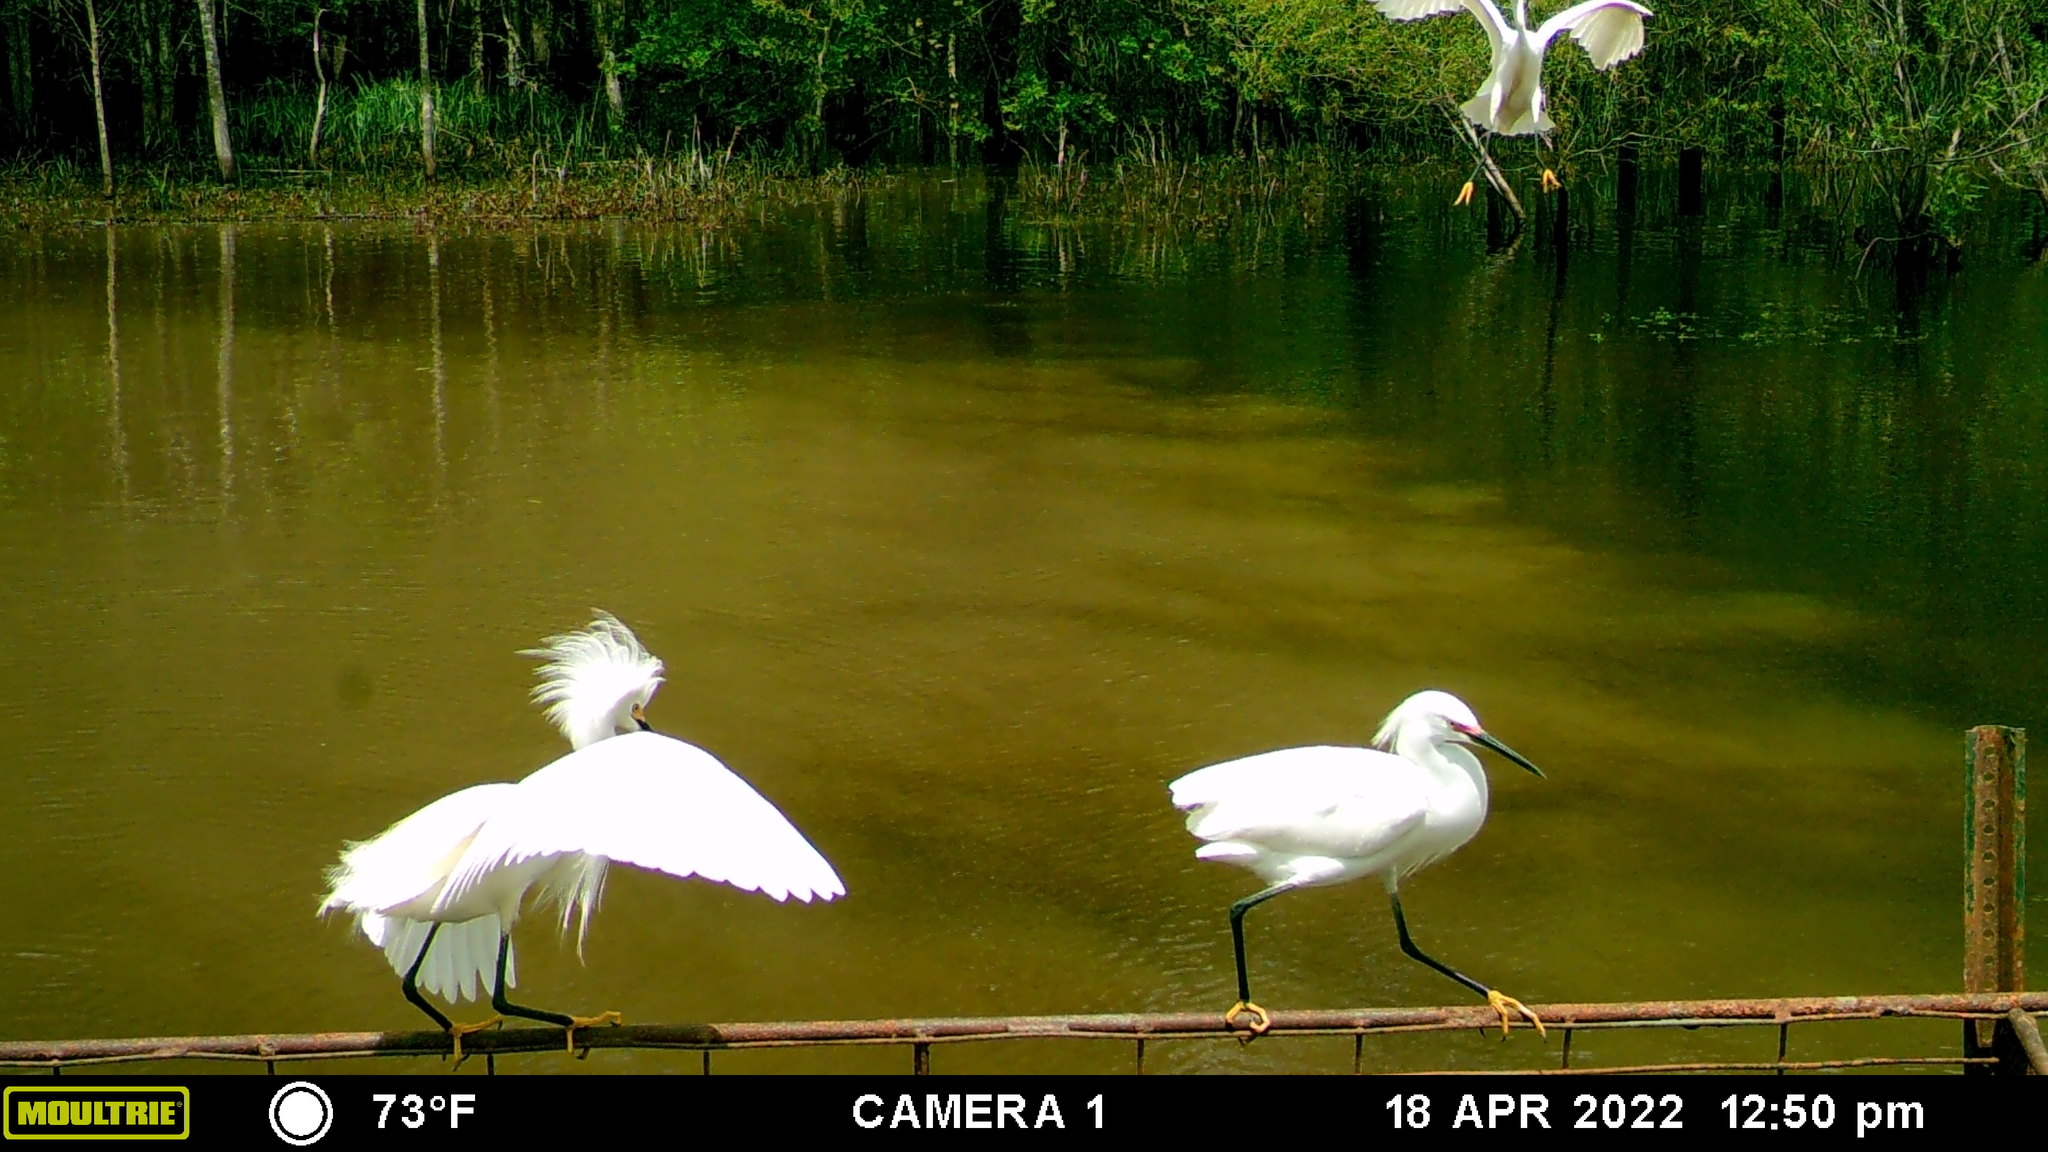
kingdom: Animalia
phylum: Chordata
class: Aves
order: Pelecaniformes
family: Ardeidae
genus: Egretta
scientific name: Egretta thula
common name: Snowy egret
